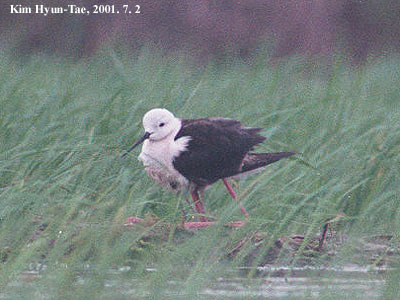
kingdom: Animalia
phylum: Chordata
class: Aves
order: Charadriiformes
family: Recurvirostridae
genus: Himantopus
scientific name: Himantopus himantopus
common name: Black-winged stilt
